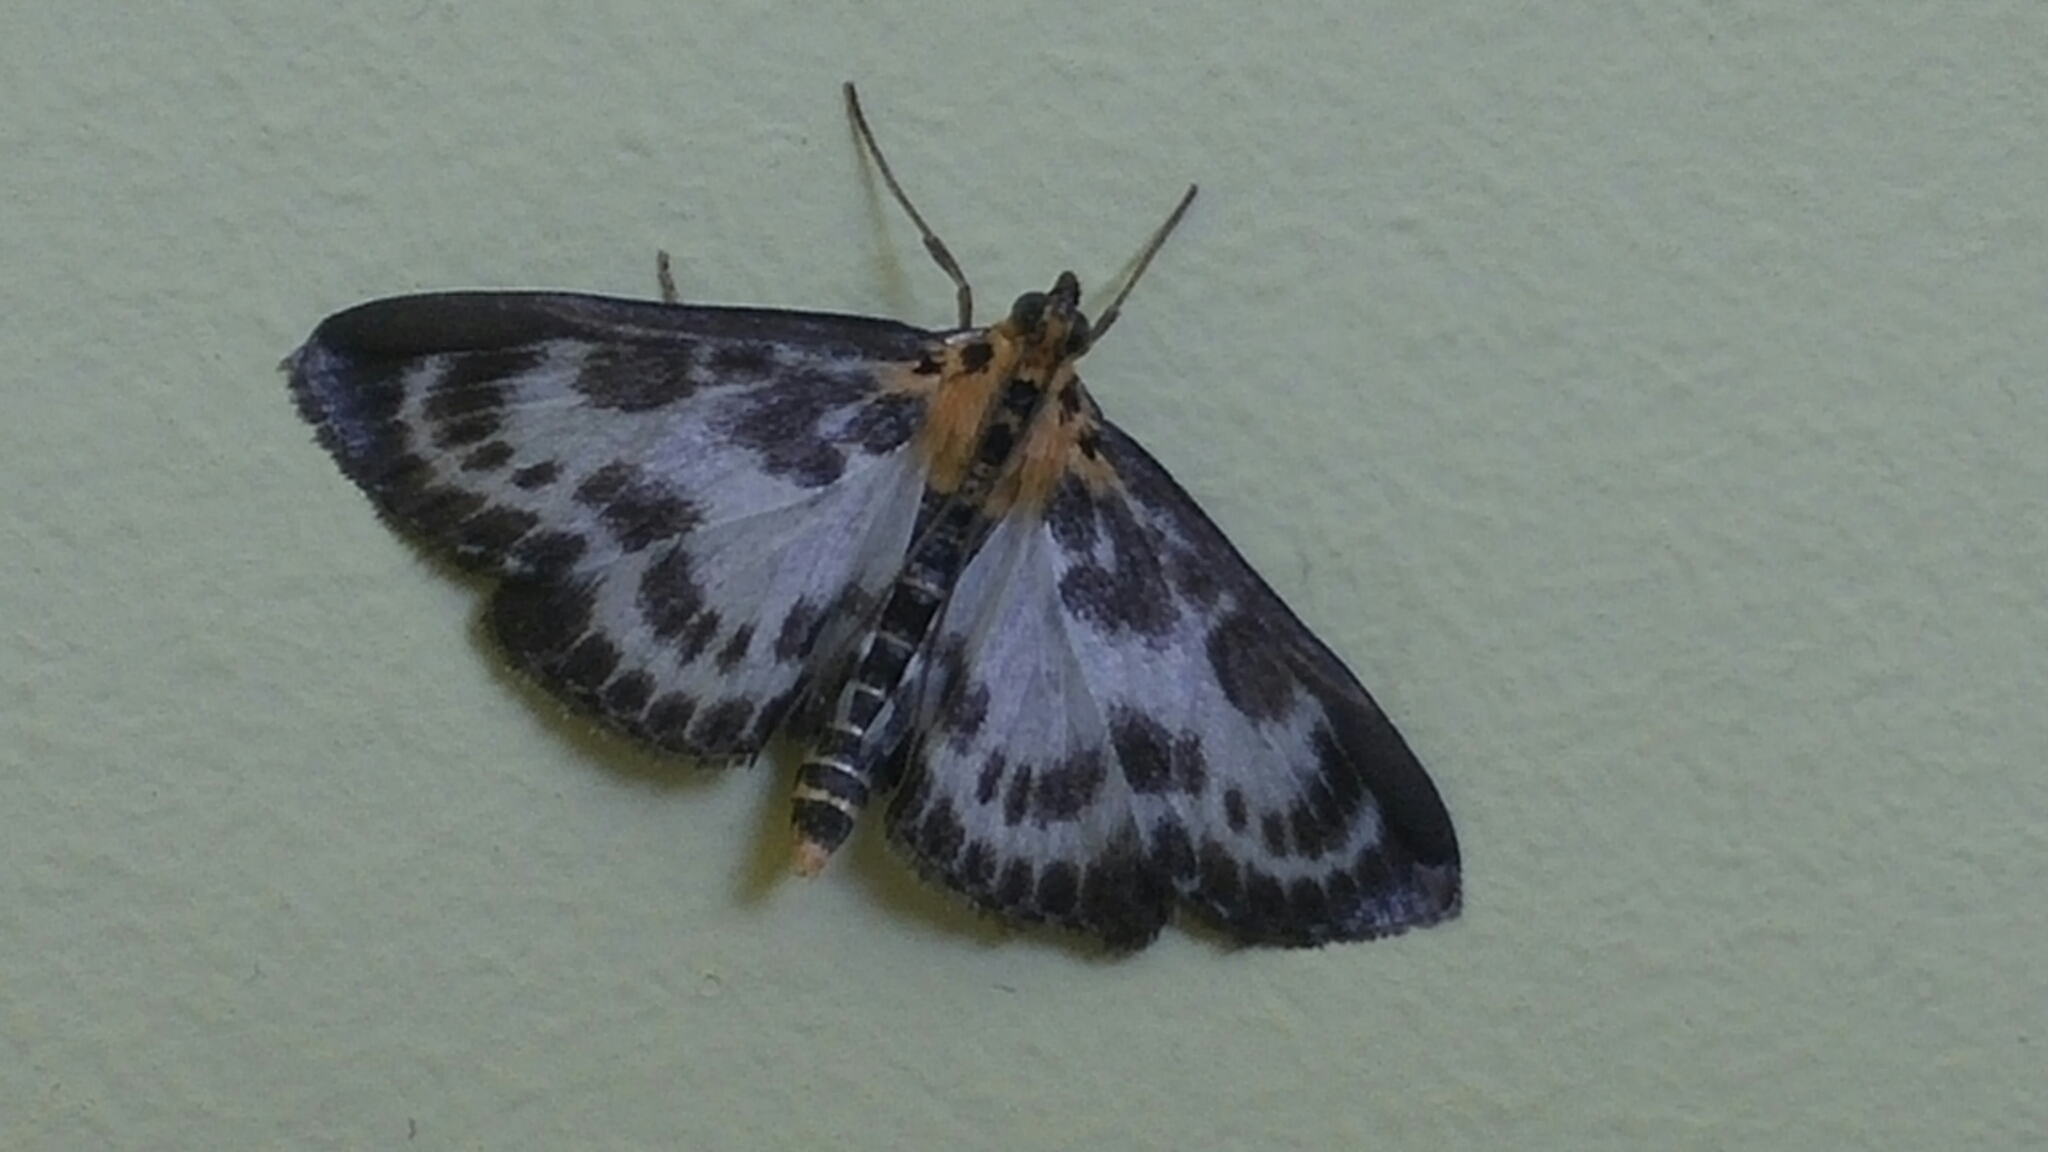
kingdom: Animalia
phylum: Arthropoda
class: Insecta
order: Lepidoptera
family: Crambidae
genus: Anania
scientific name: Anania hortulata
